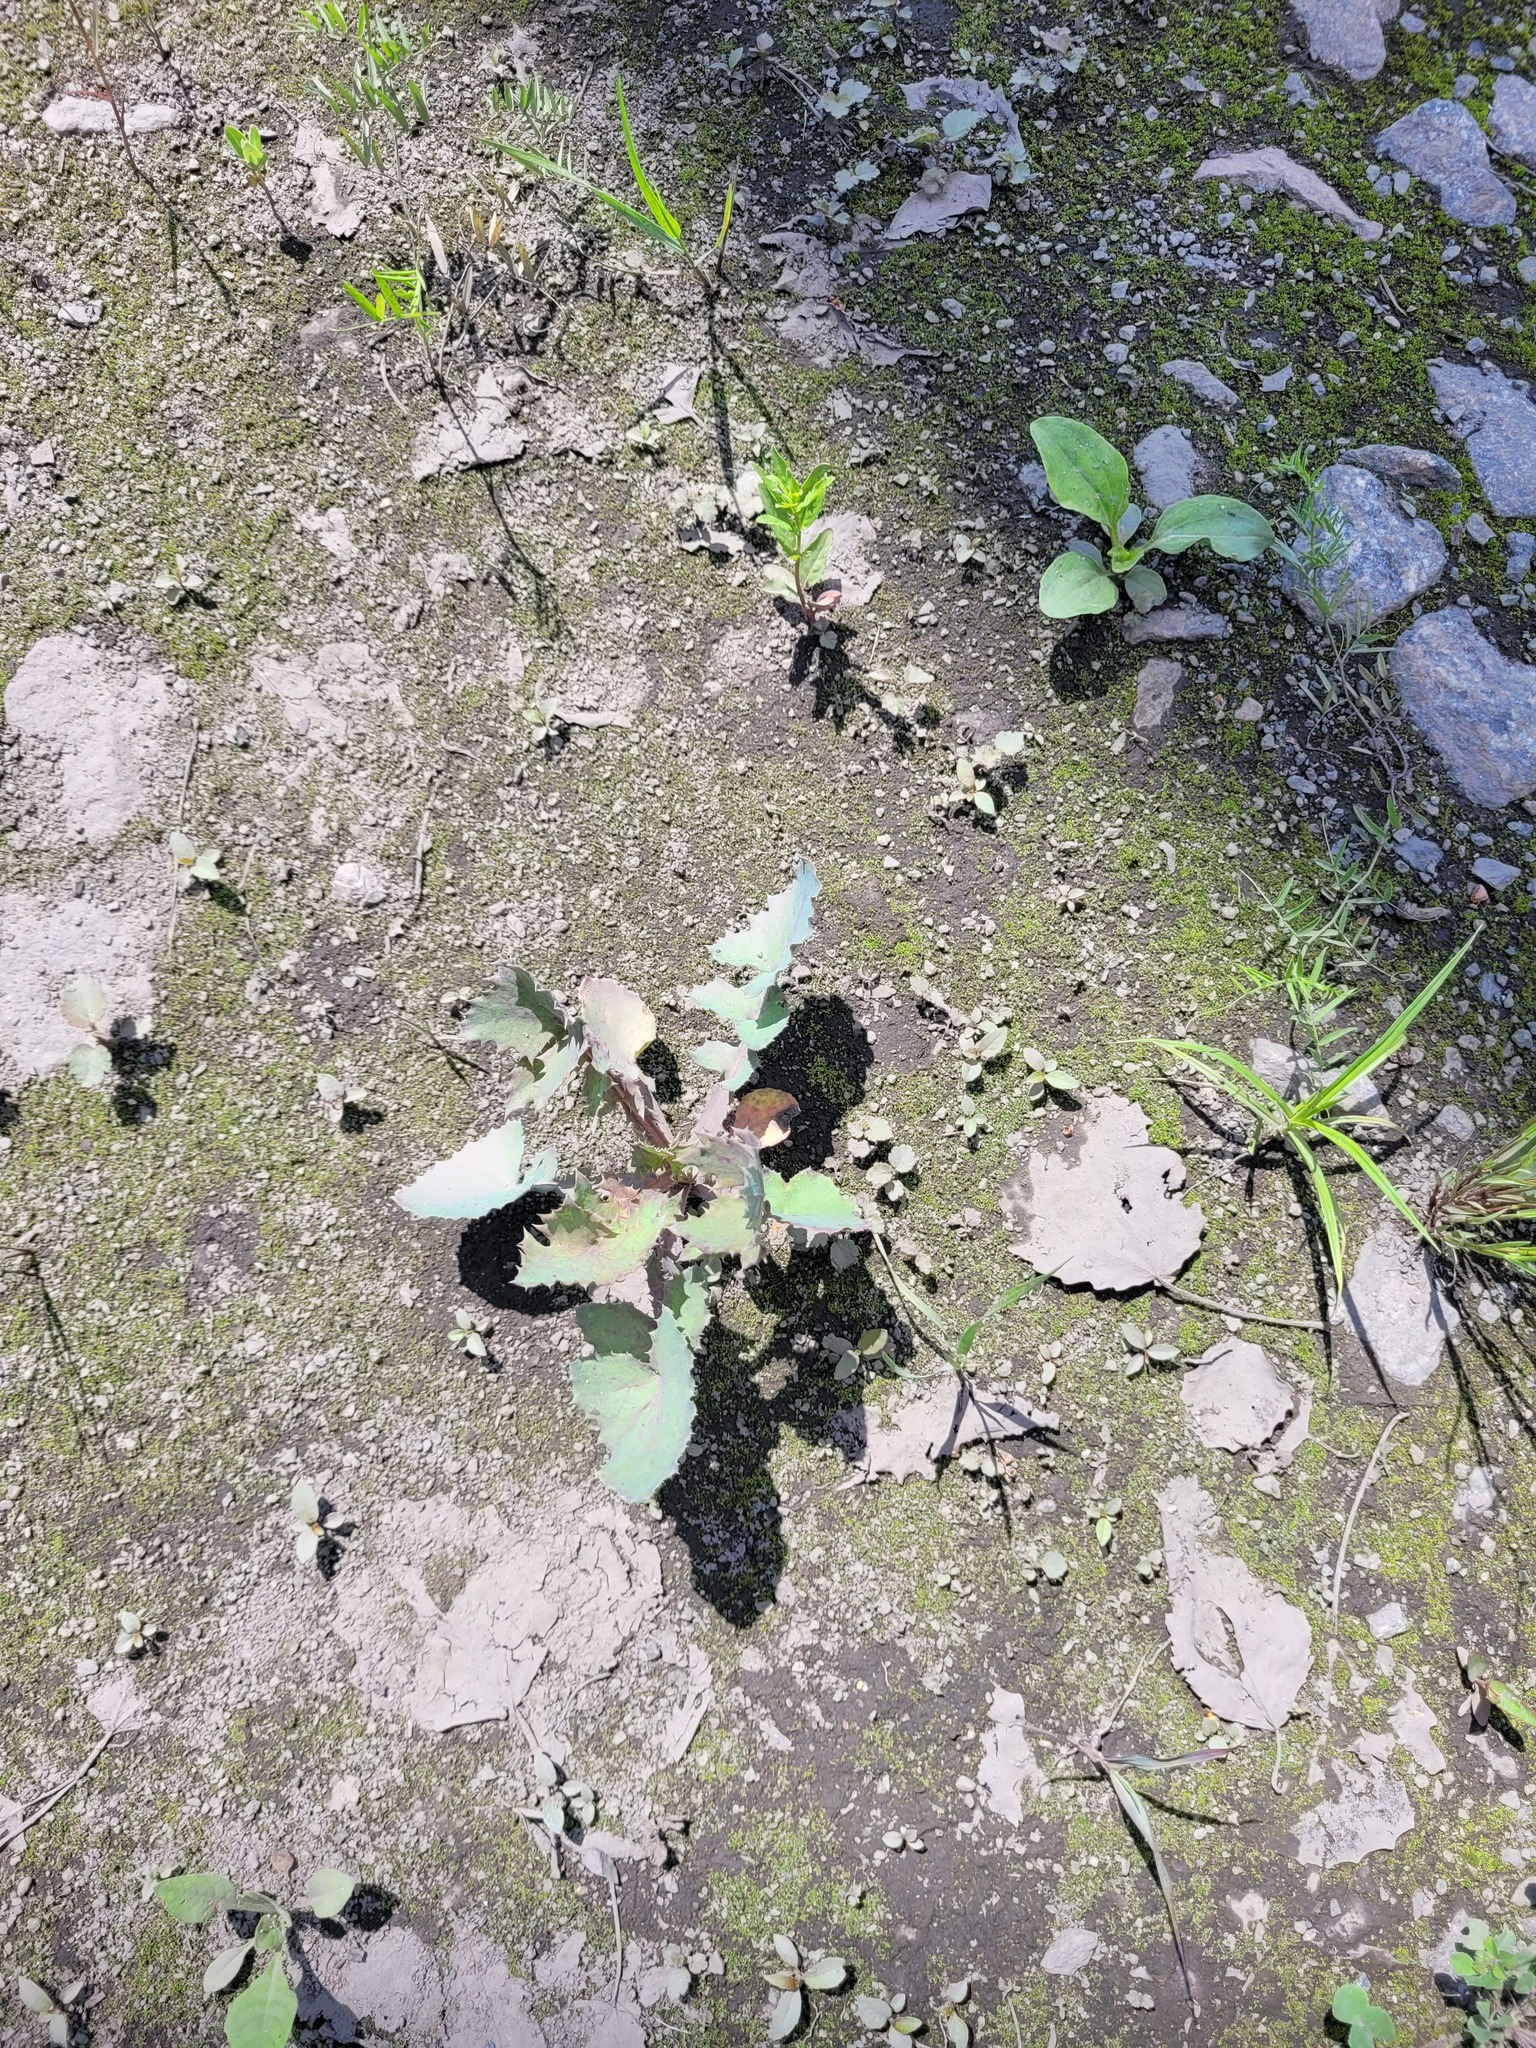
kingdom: Plantae
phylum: Tracheophyta
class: Magnoliopsida
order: Asterales
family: Asteraceae
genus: Sonchus
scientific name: Sonchus oleraceus
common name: Common sowthistle
